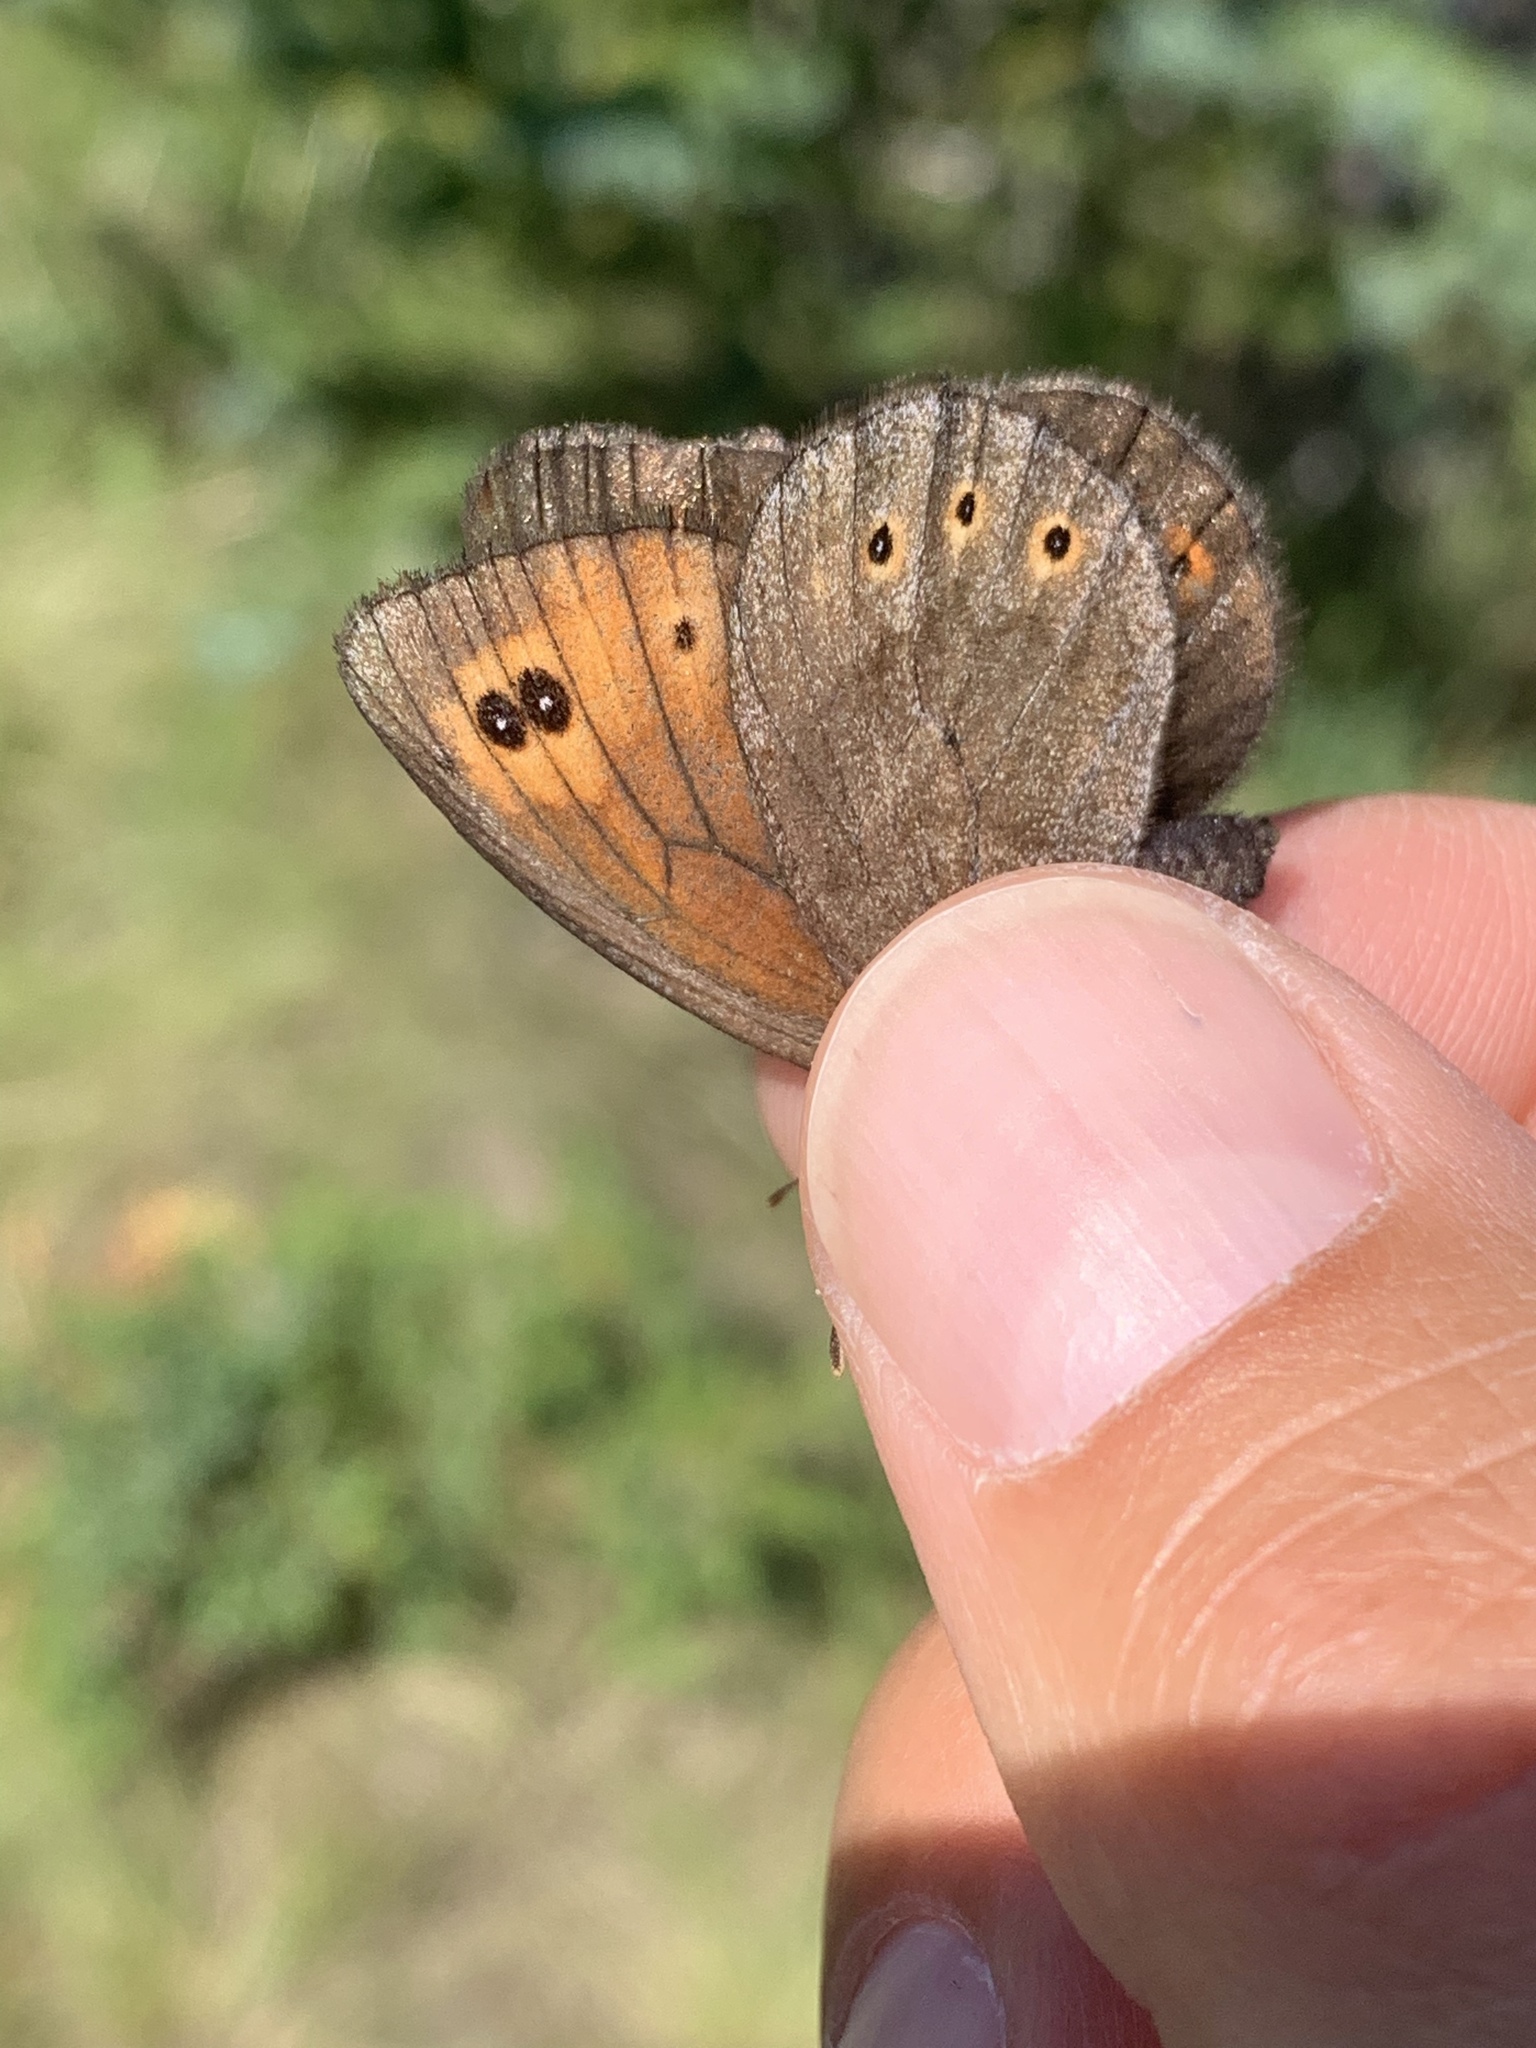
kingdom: Animalia
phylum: Arthropoda
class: Insecta
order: Lepidoptera
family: Nymphalidae
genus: Erebia
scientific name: Erebia epipsodea
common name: Common alpine
